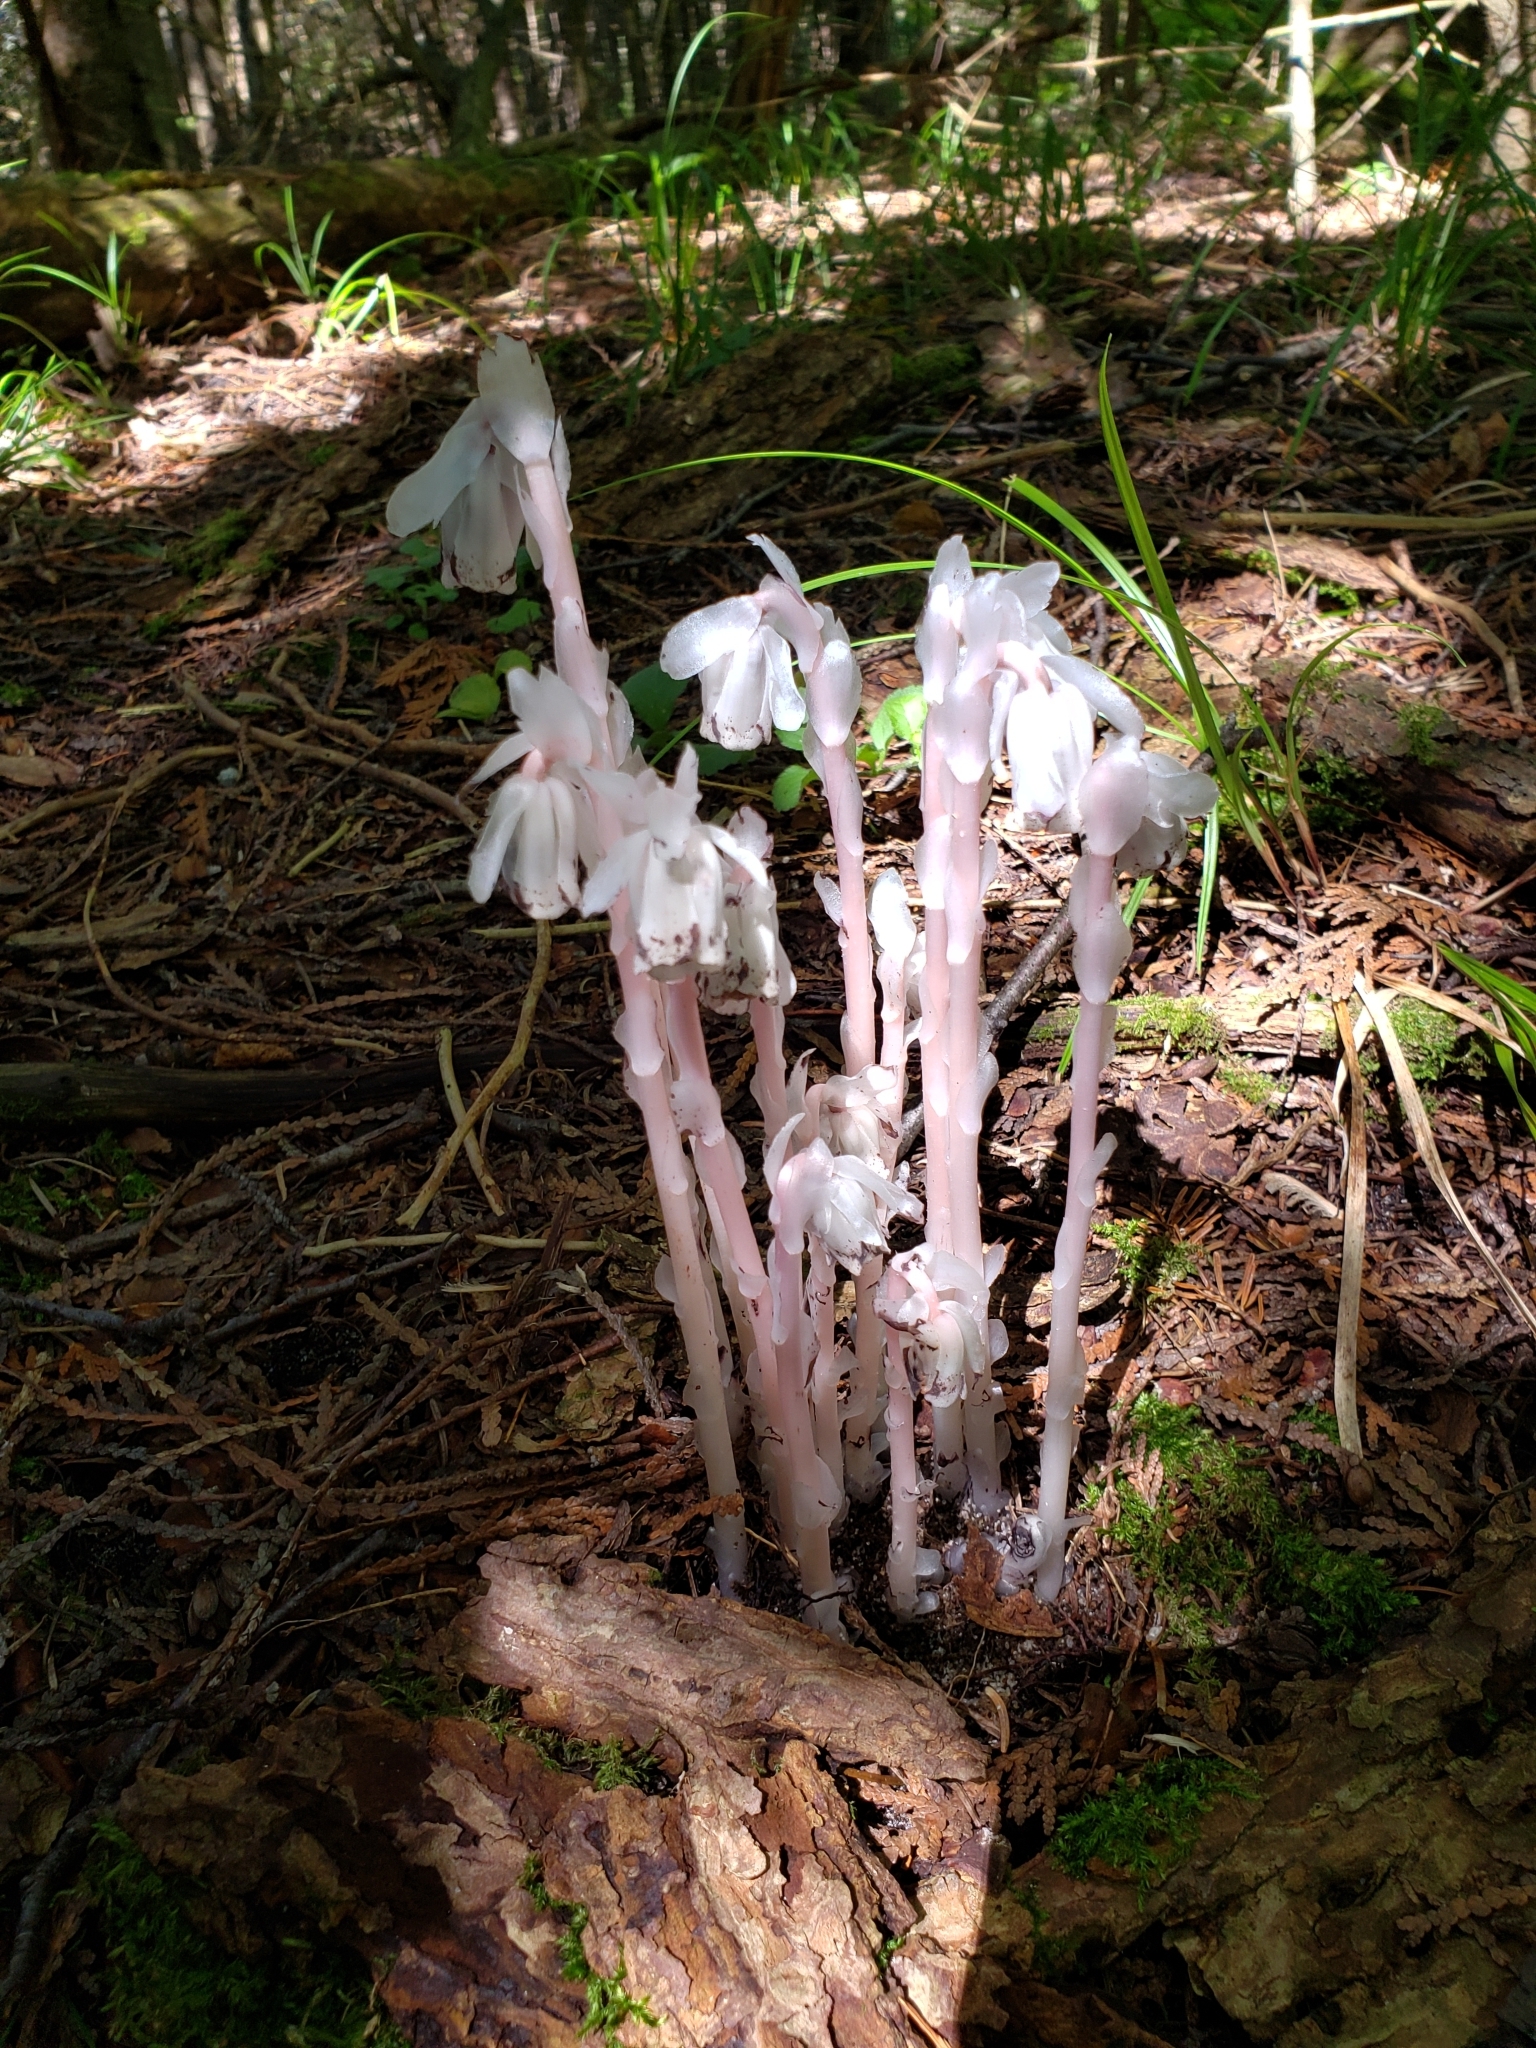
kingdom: Plantae
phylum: Tracheophyta
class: Magnoliopsida
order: Ericales
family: Ericaceae
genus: Monotropa
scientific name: Monotropa uniflora
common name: Convulsion root
